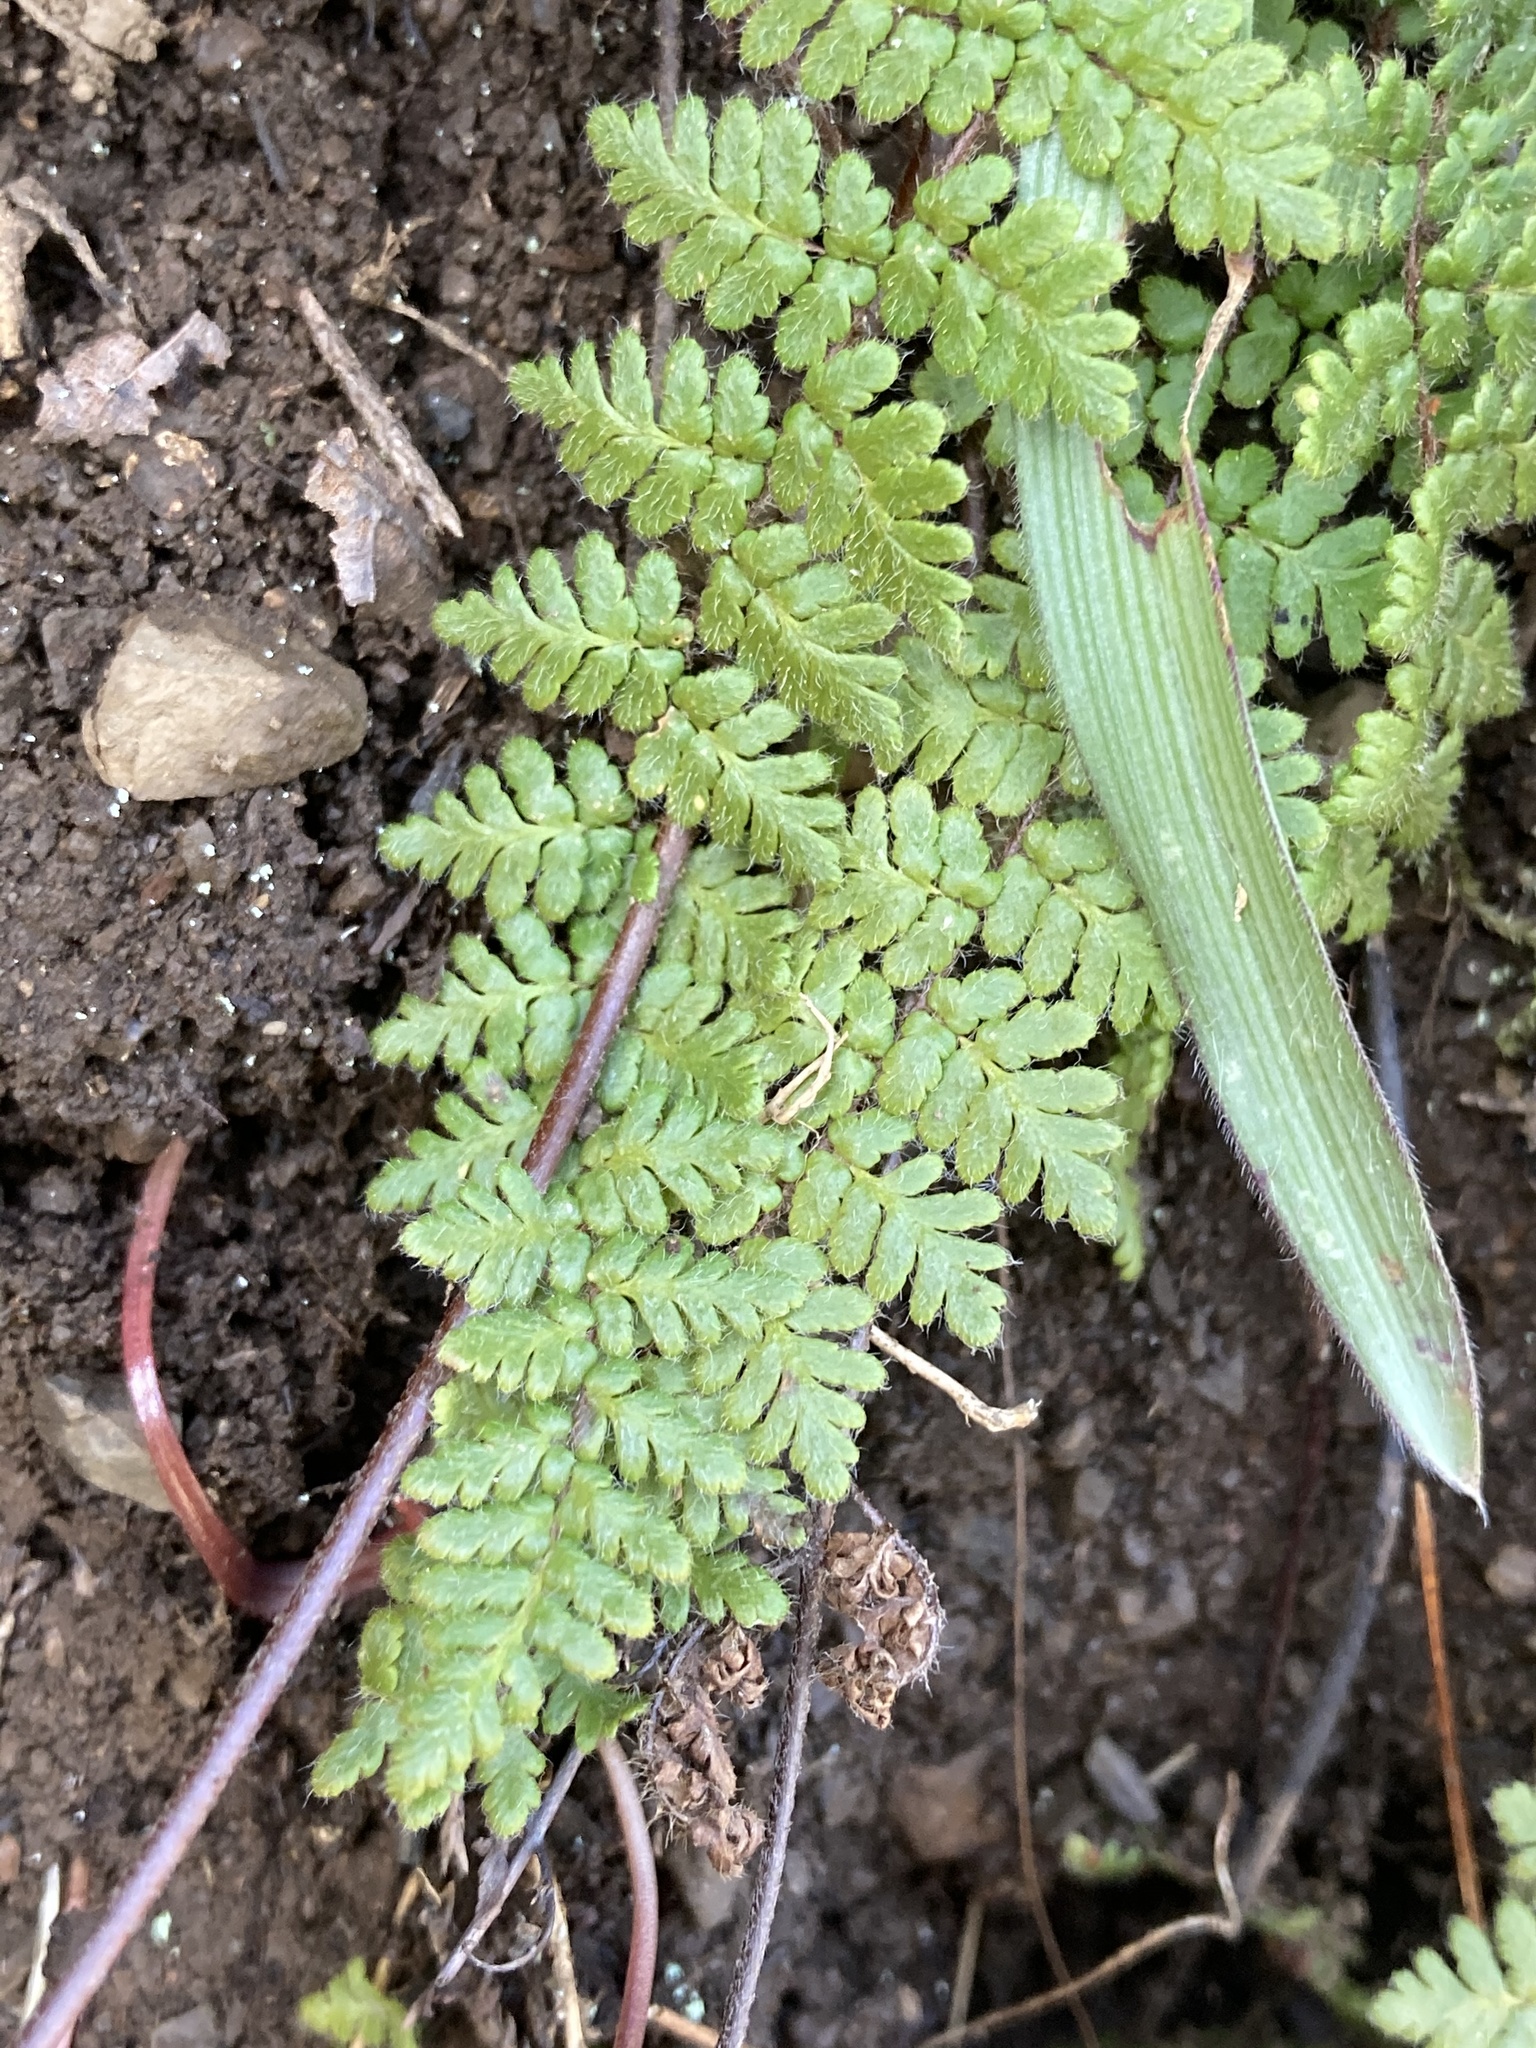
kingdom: Plantae
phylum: Tracheophyta
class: Polypodiopsida
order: Polypodiales
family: Pteridaceae
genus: Myriopteris
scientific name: Myriopteris lanosa
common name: Hairy lip fern
